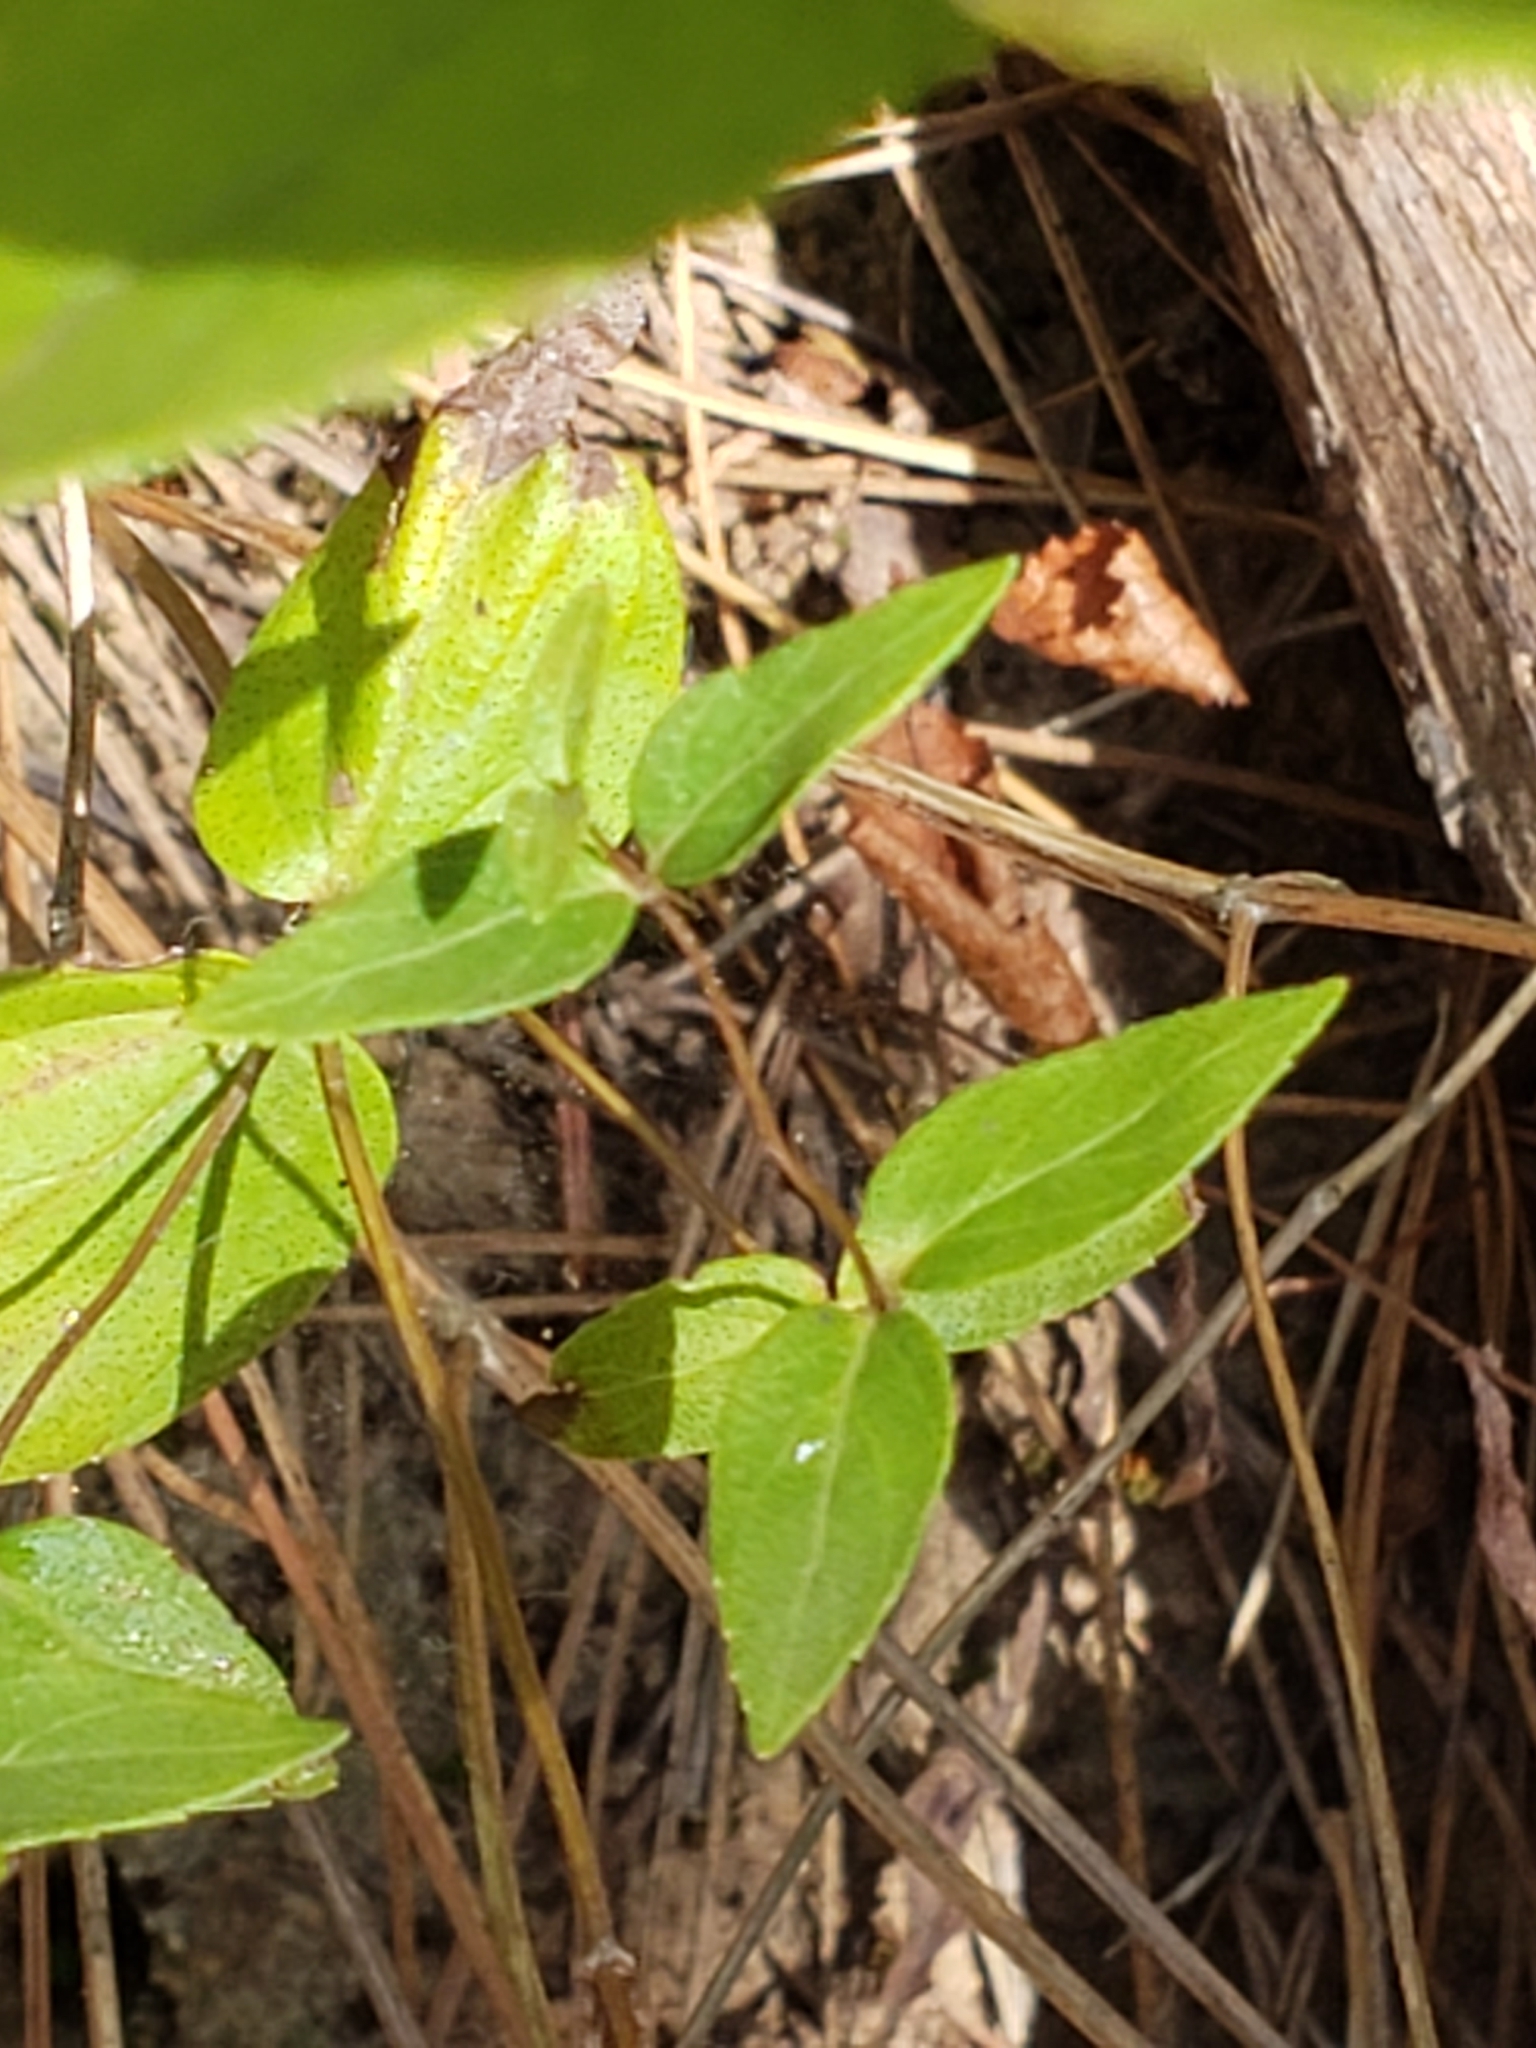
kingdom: Plantae
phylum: Tracheophyta
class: Magnoliopsida
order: Lamiales
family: Lamiaceae
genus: Cunila
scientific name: Cunila origanoides
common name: American dittany
